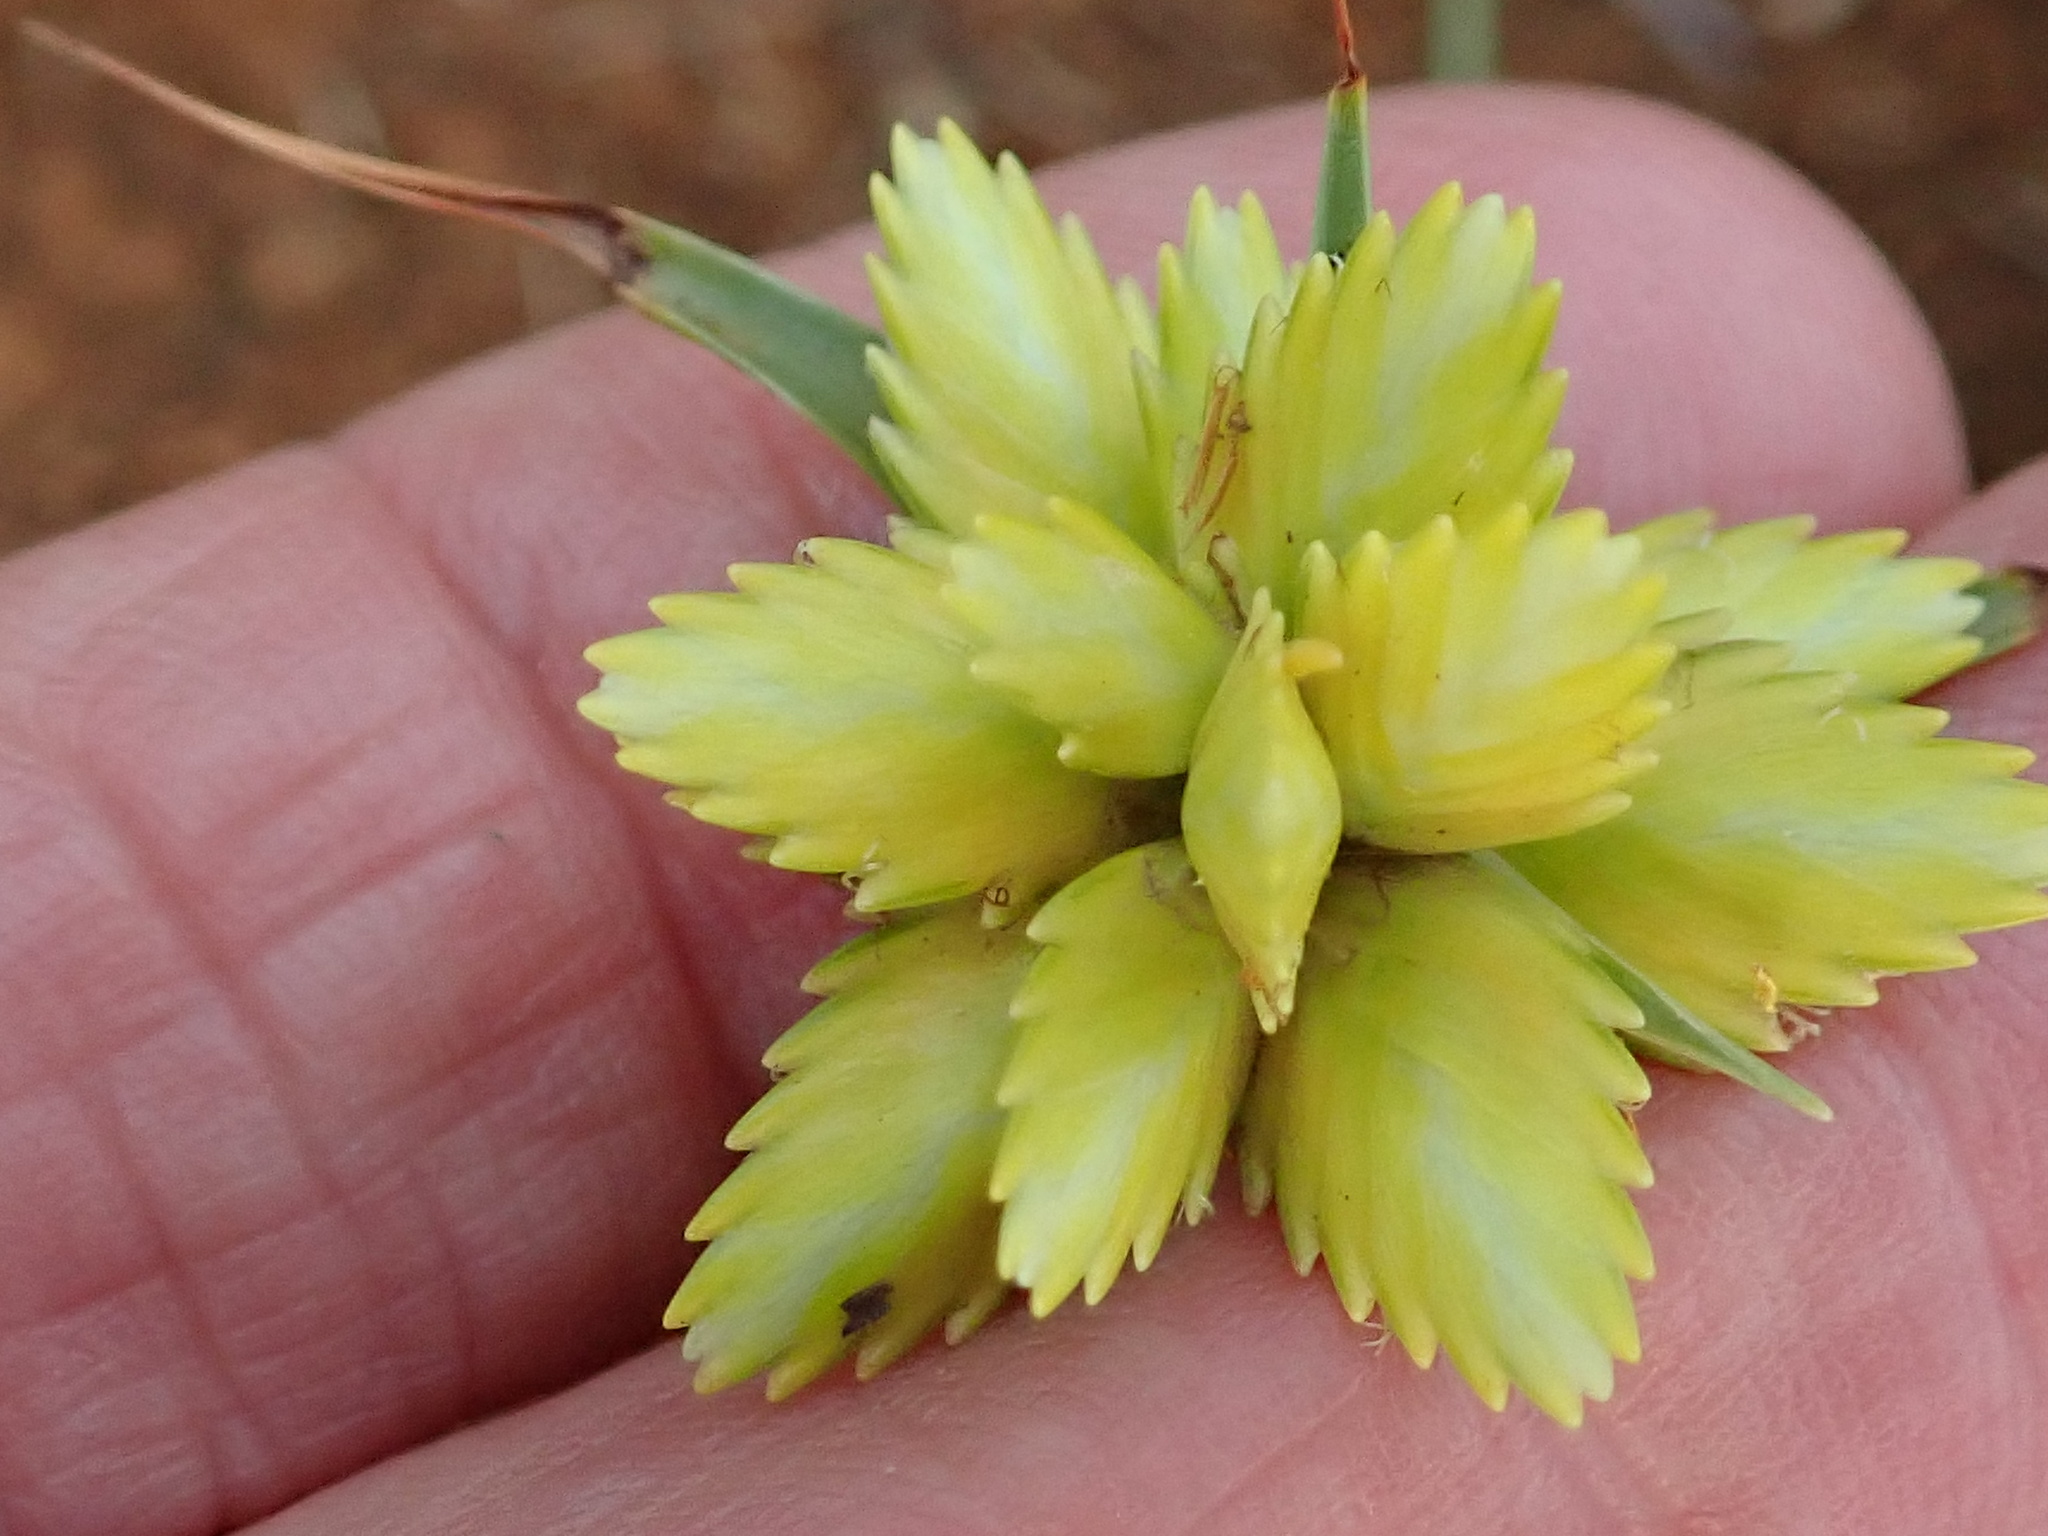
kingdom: Plantae
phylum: Tracheophyta
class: Liliopsida
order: Poales
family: Cyperaceae
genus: Cyperus
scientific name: Cyperus sphaerocephalus
